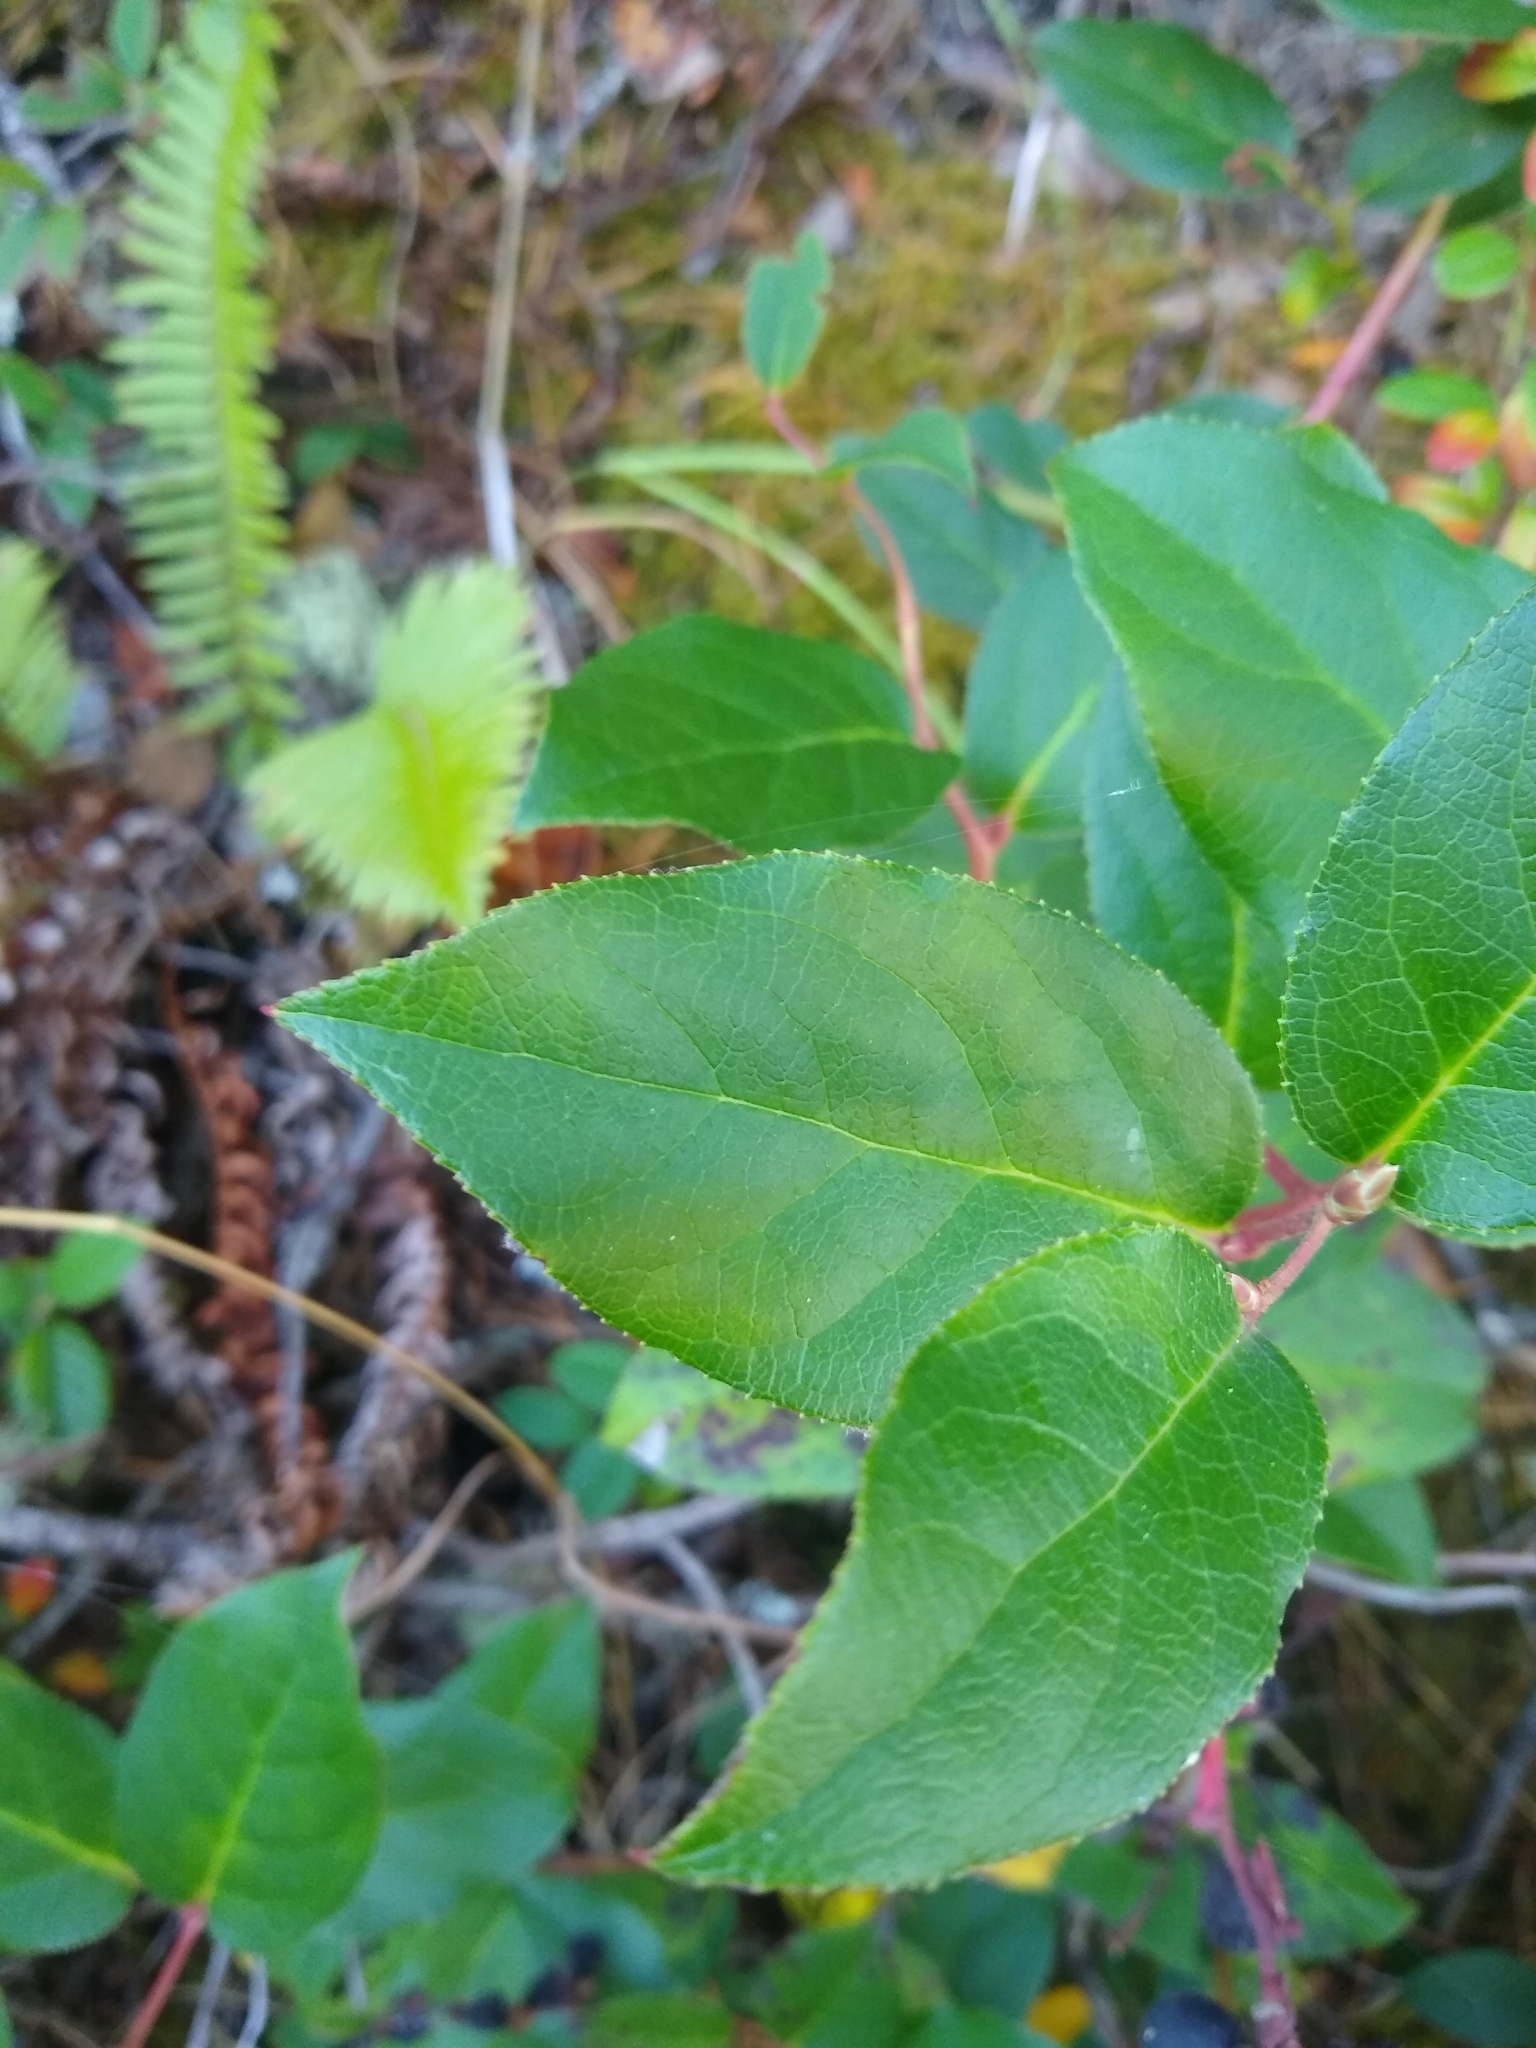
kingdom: Plantae
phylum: Tracheophyta
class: Magnoliopsida
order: Ericales
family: Ericaceae
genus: Gaultheria
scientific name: Gaultheria shallon
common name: Shallon
